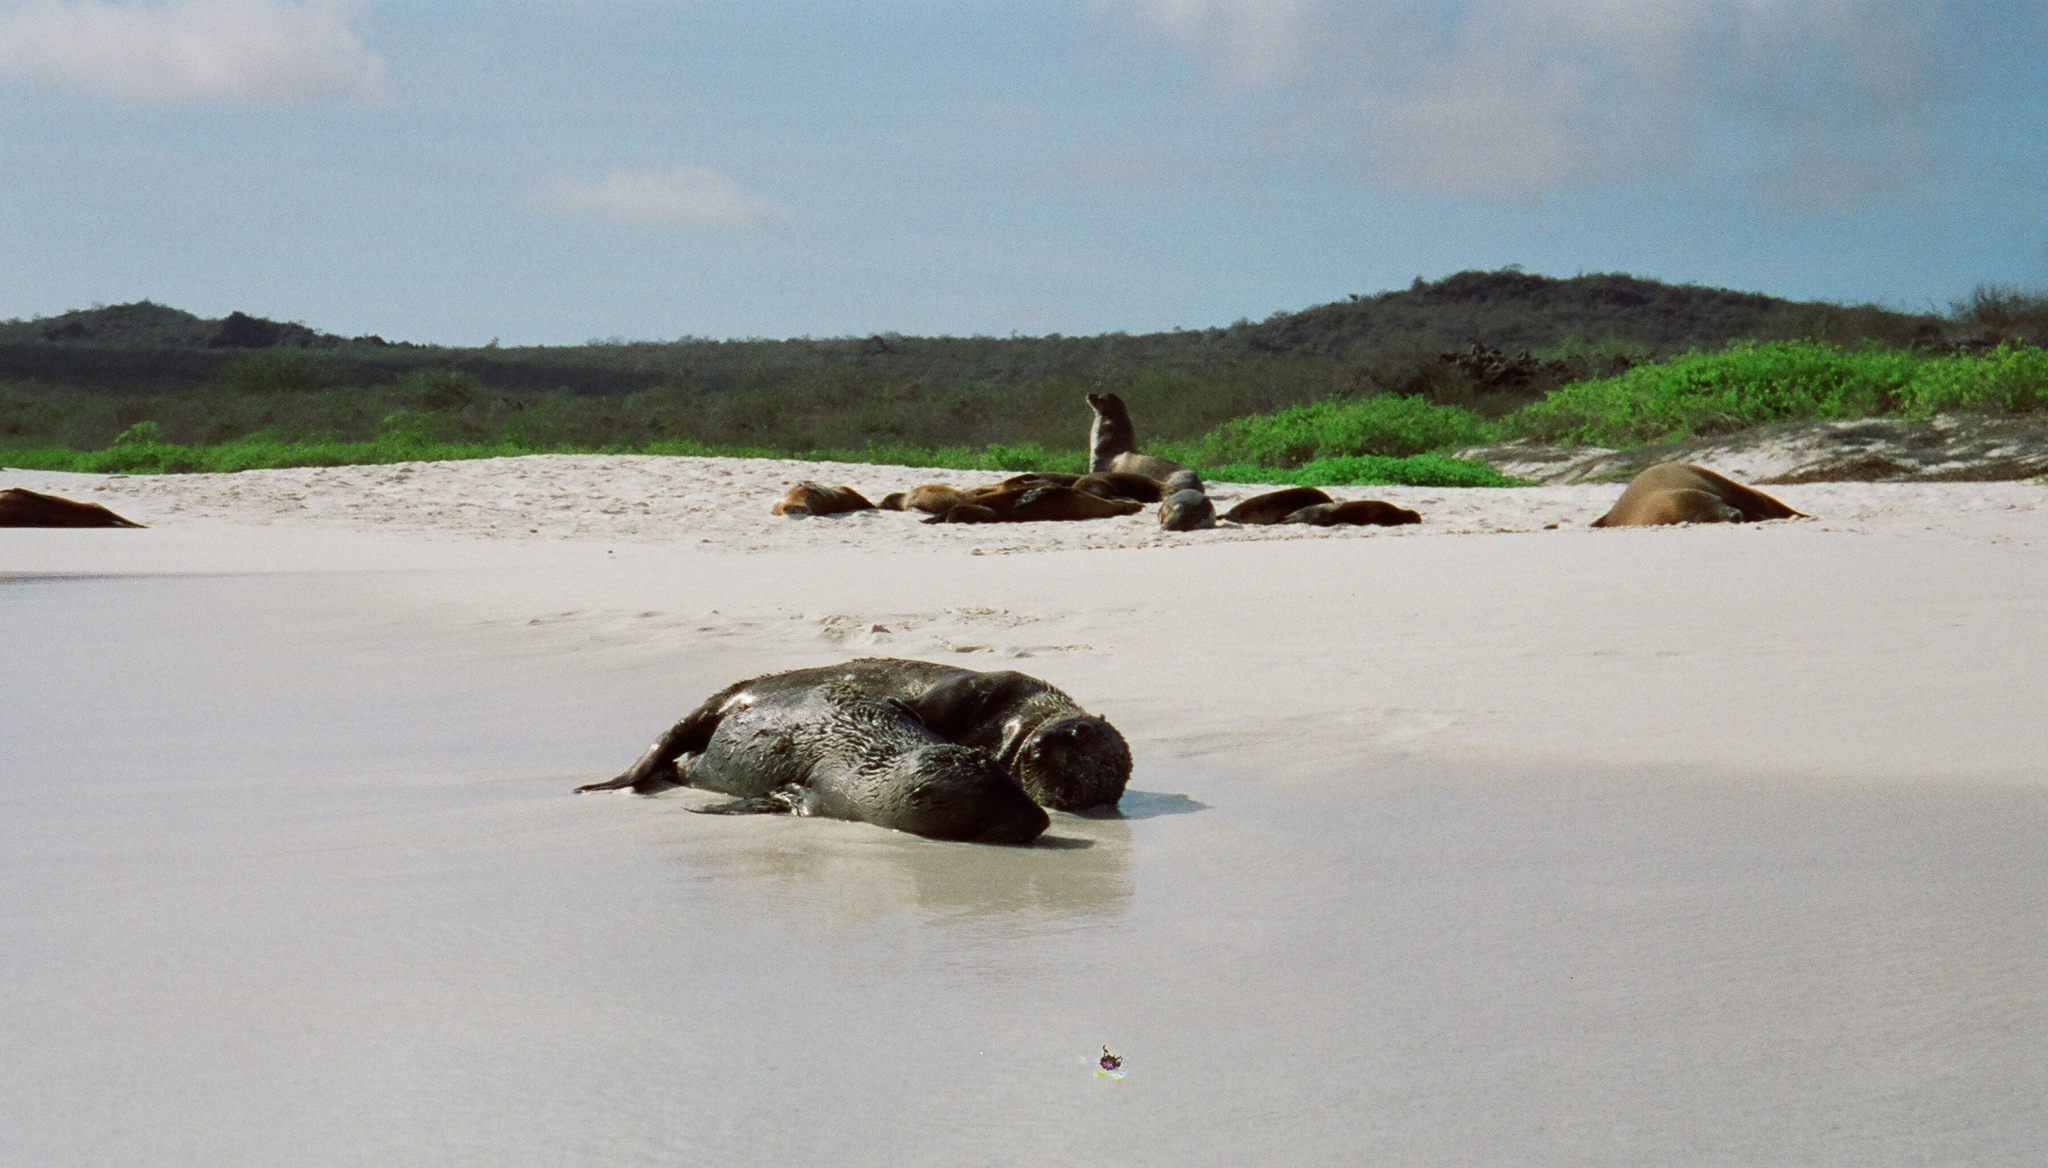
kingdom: Animalia
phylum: Chordata
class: Mammalia
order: Carnivora
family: Otariidae
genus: Zalophus
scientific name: Zalophus wollebaeki
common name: Galapagos sea lion
